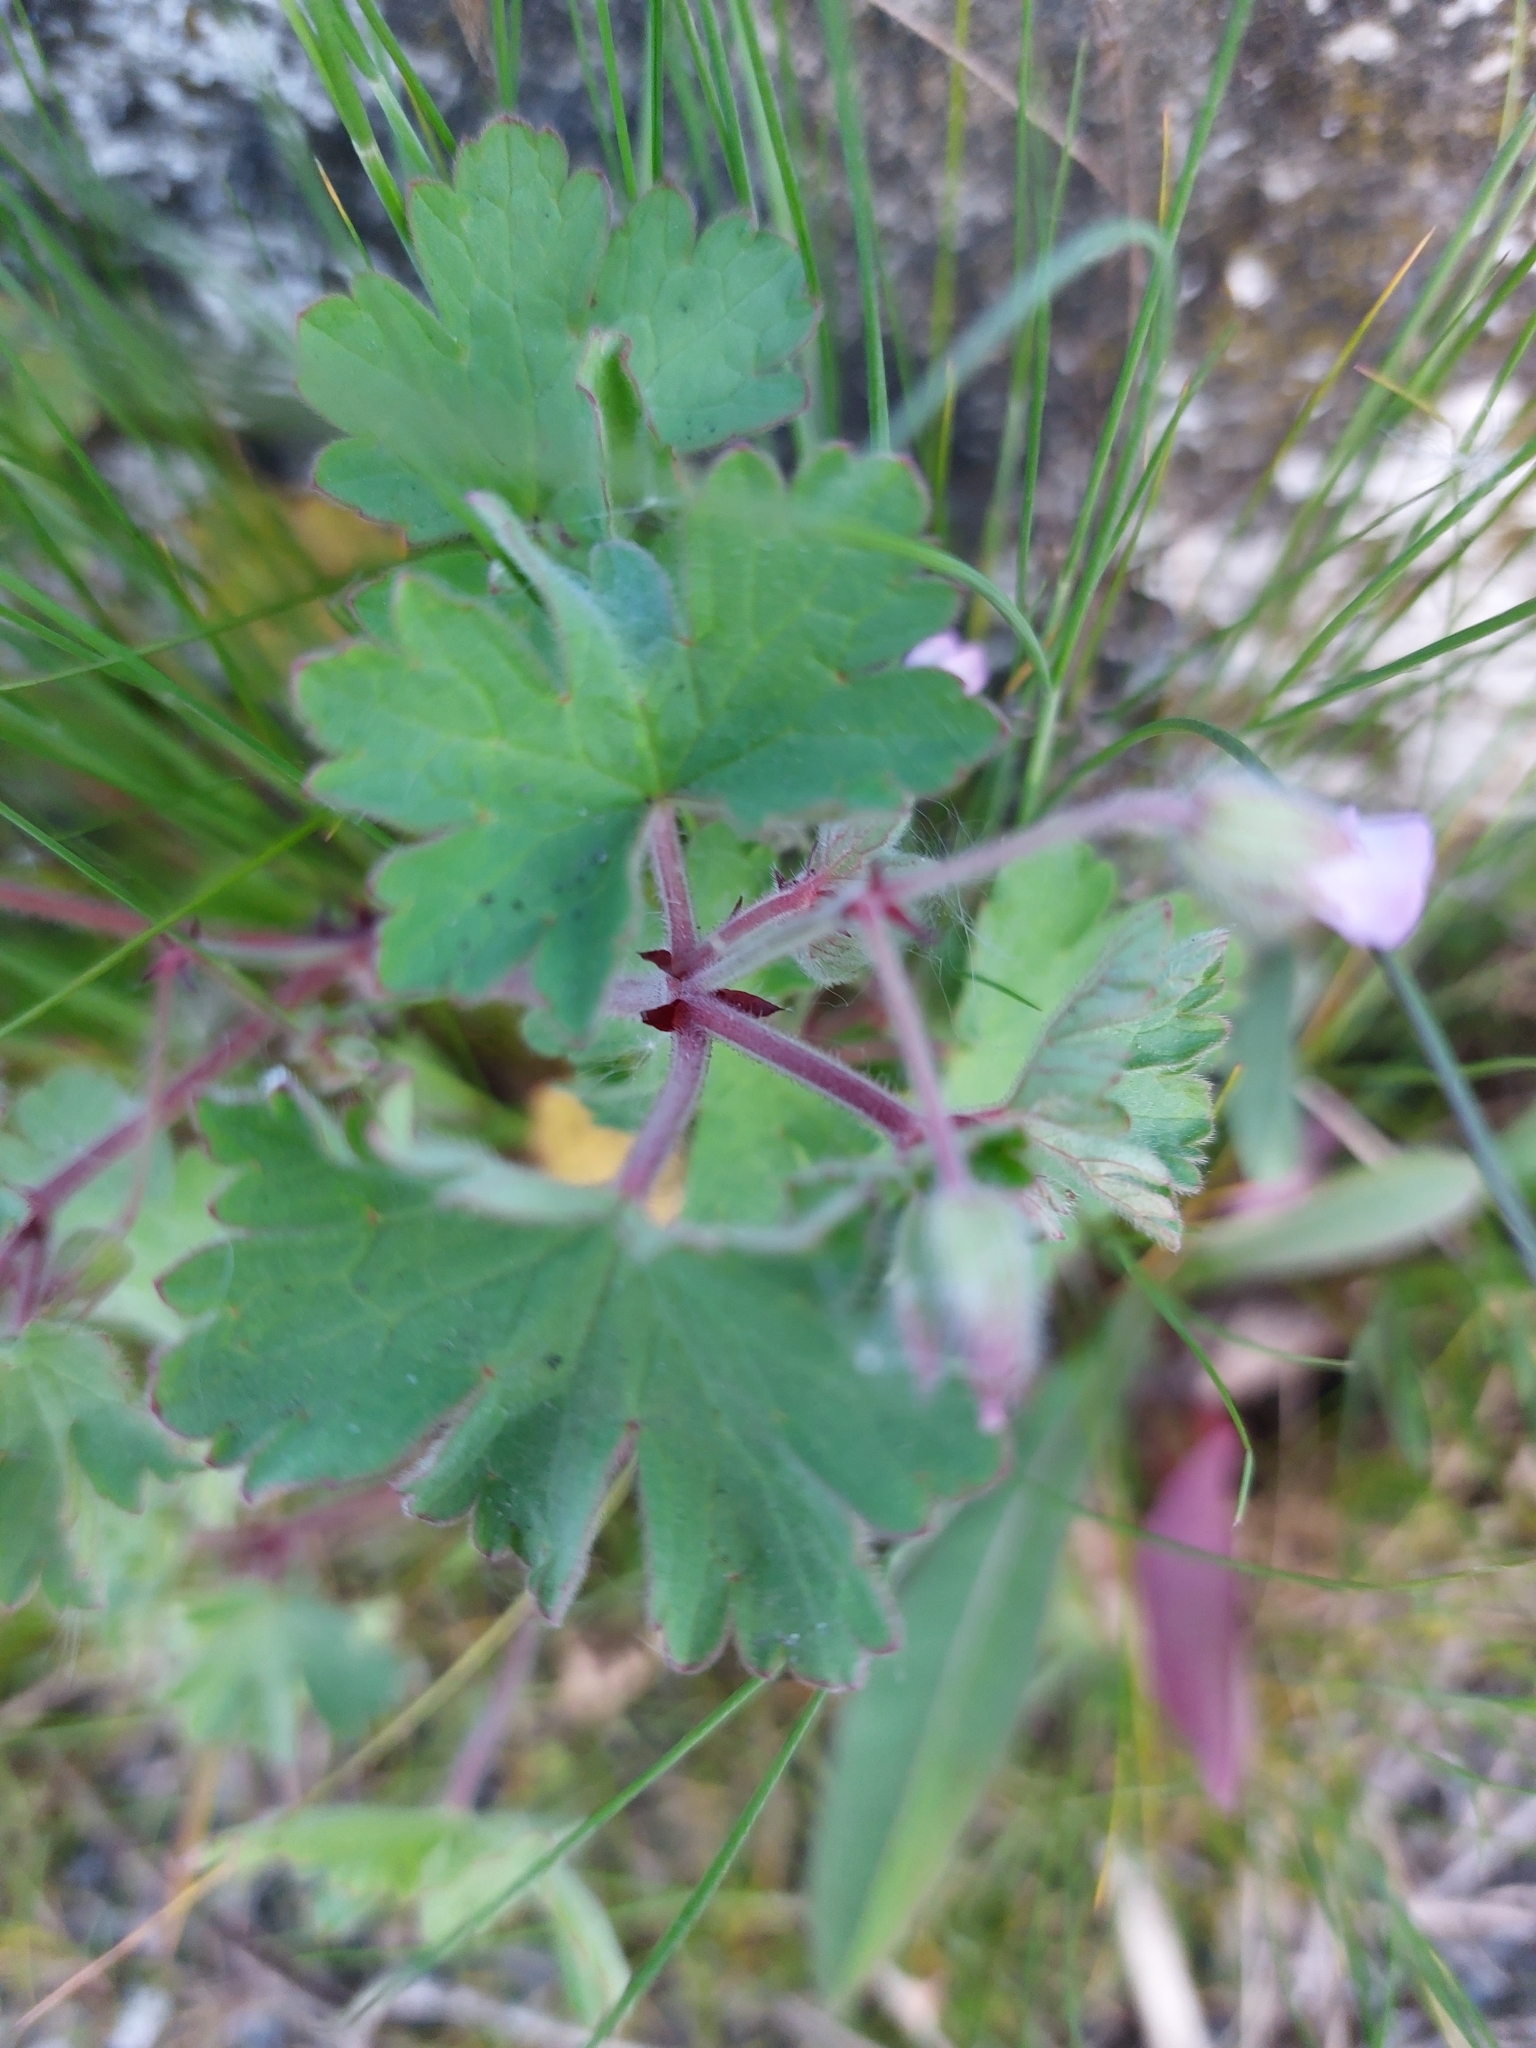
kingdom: Plantae
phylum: Tracheophyta
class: Magnoliopsida
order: Geraniales
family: Geraniaceae
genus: Geranium
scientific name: Geranium rotundifolium
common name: Round-leaved crane's-bill
